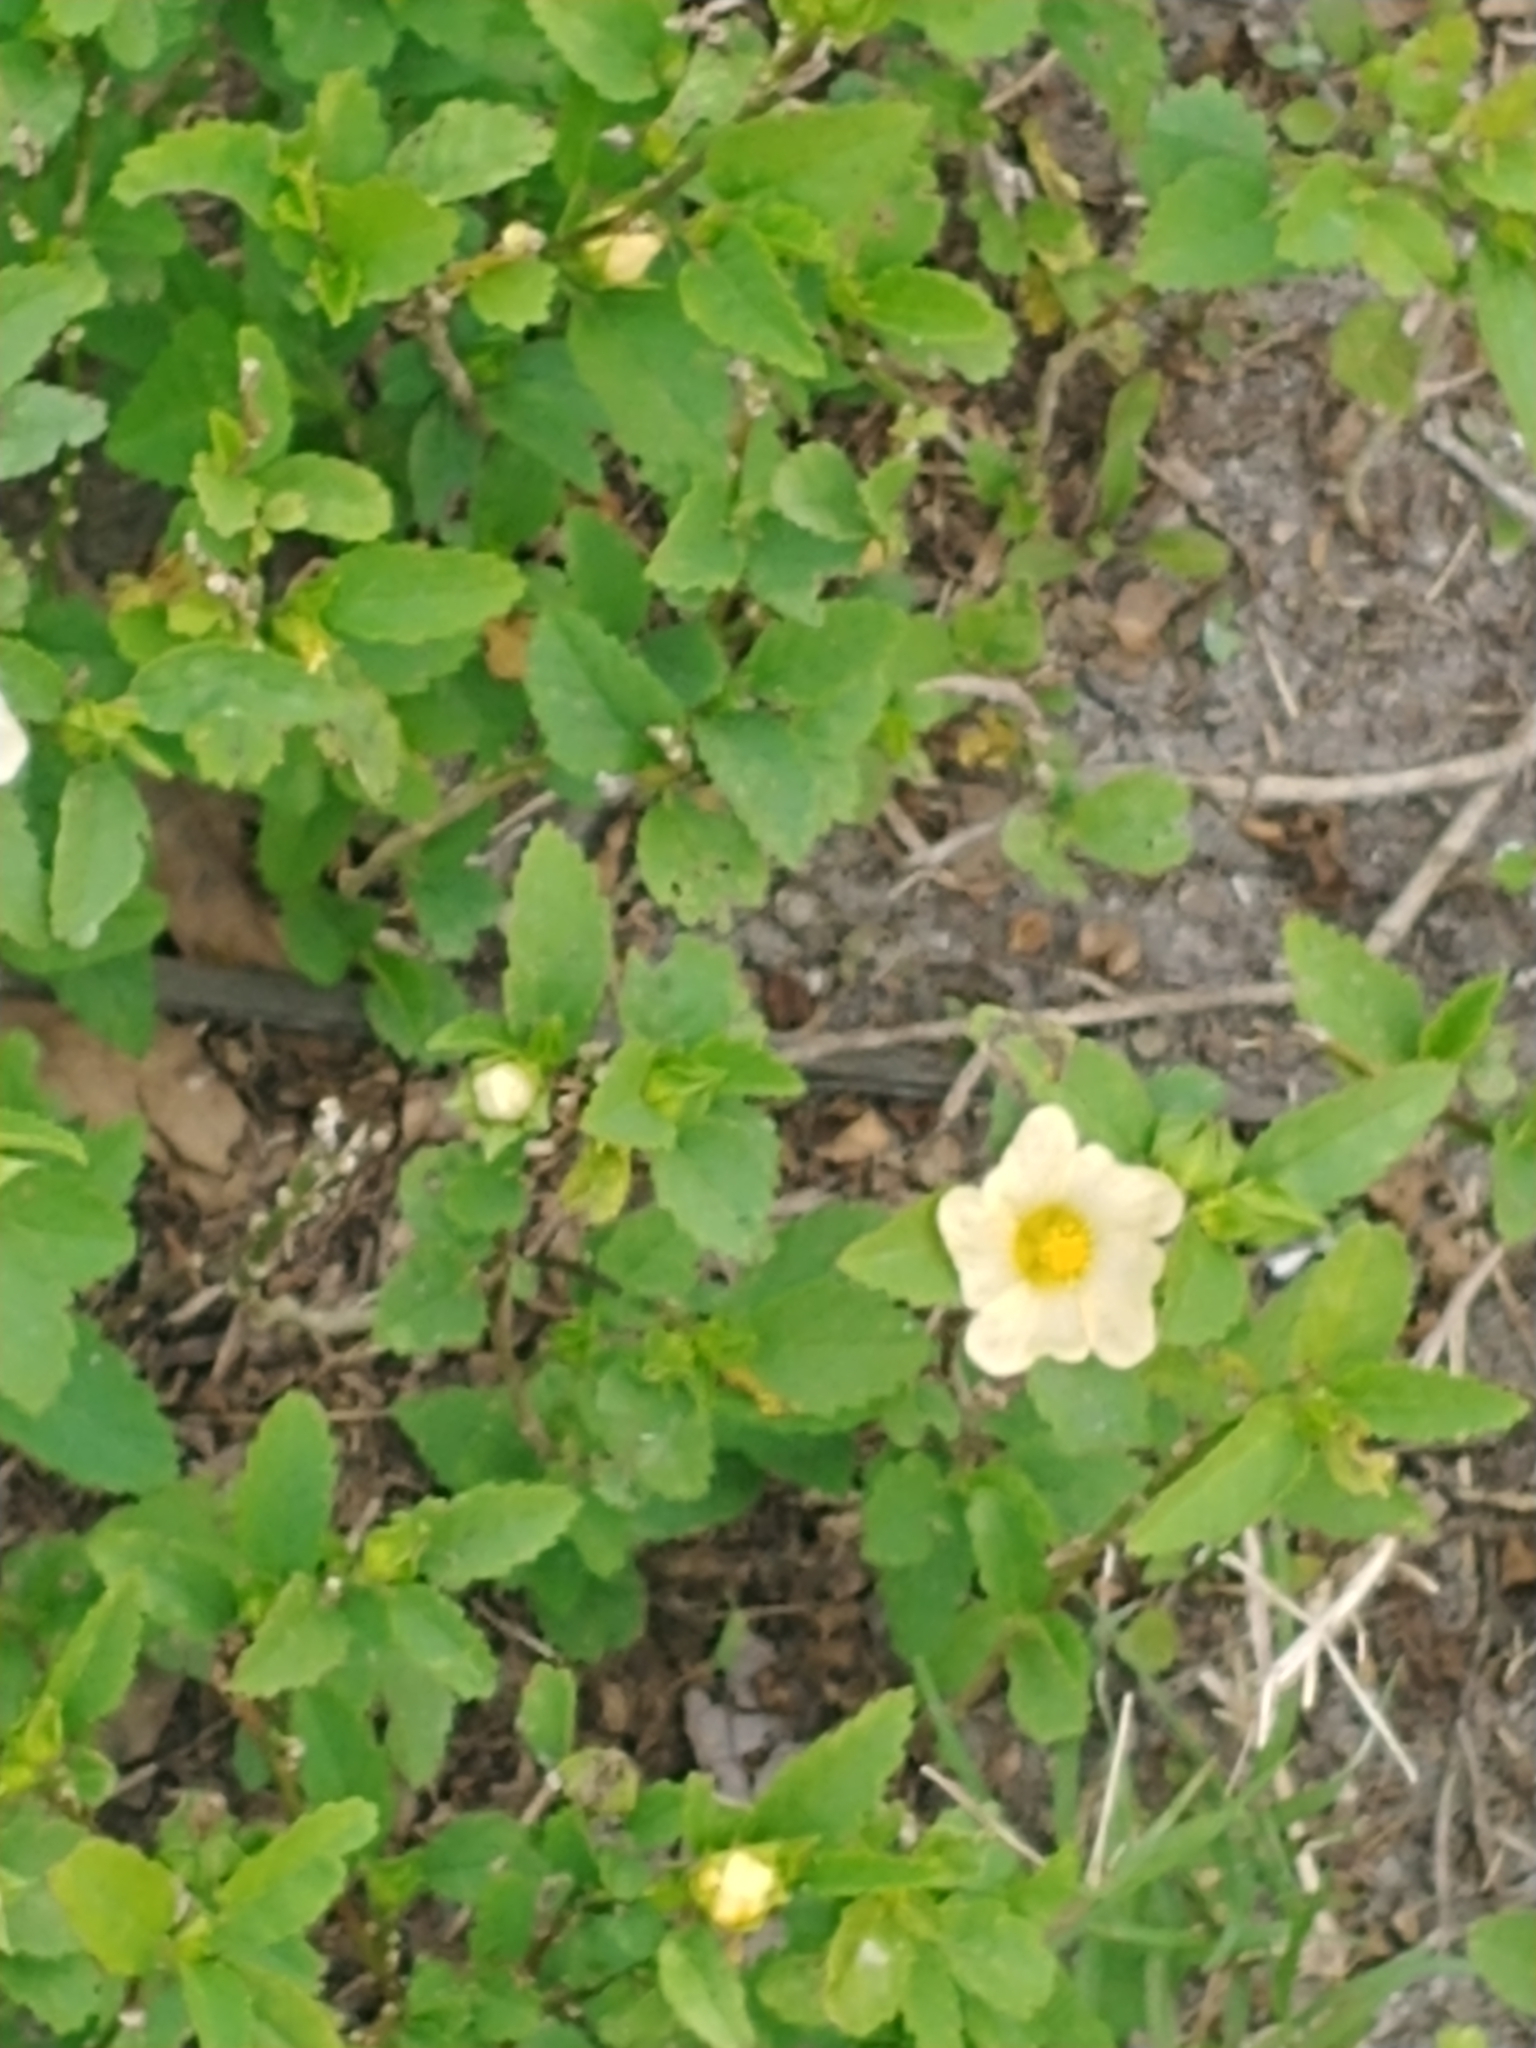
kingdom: Plantae
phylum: Tracheophyta
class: Magnoliopsida
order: Malvales
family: Malvaceae
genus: Sida
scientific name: Sida rhombifolia
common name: Queensland-hemp
